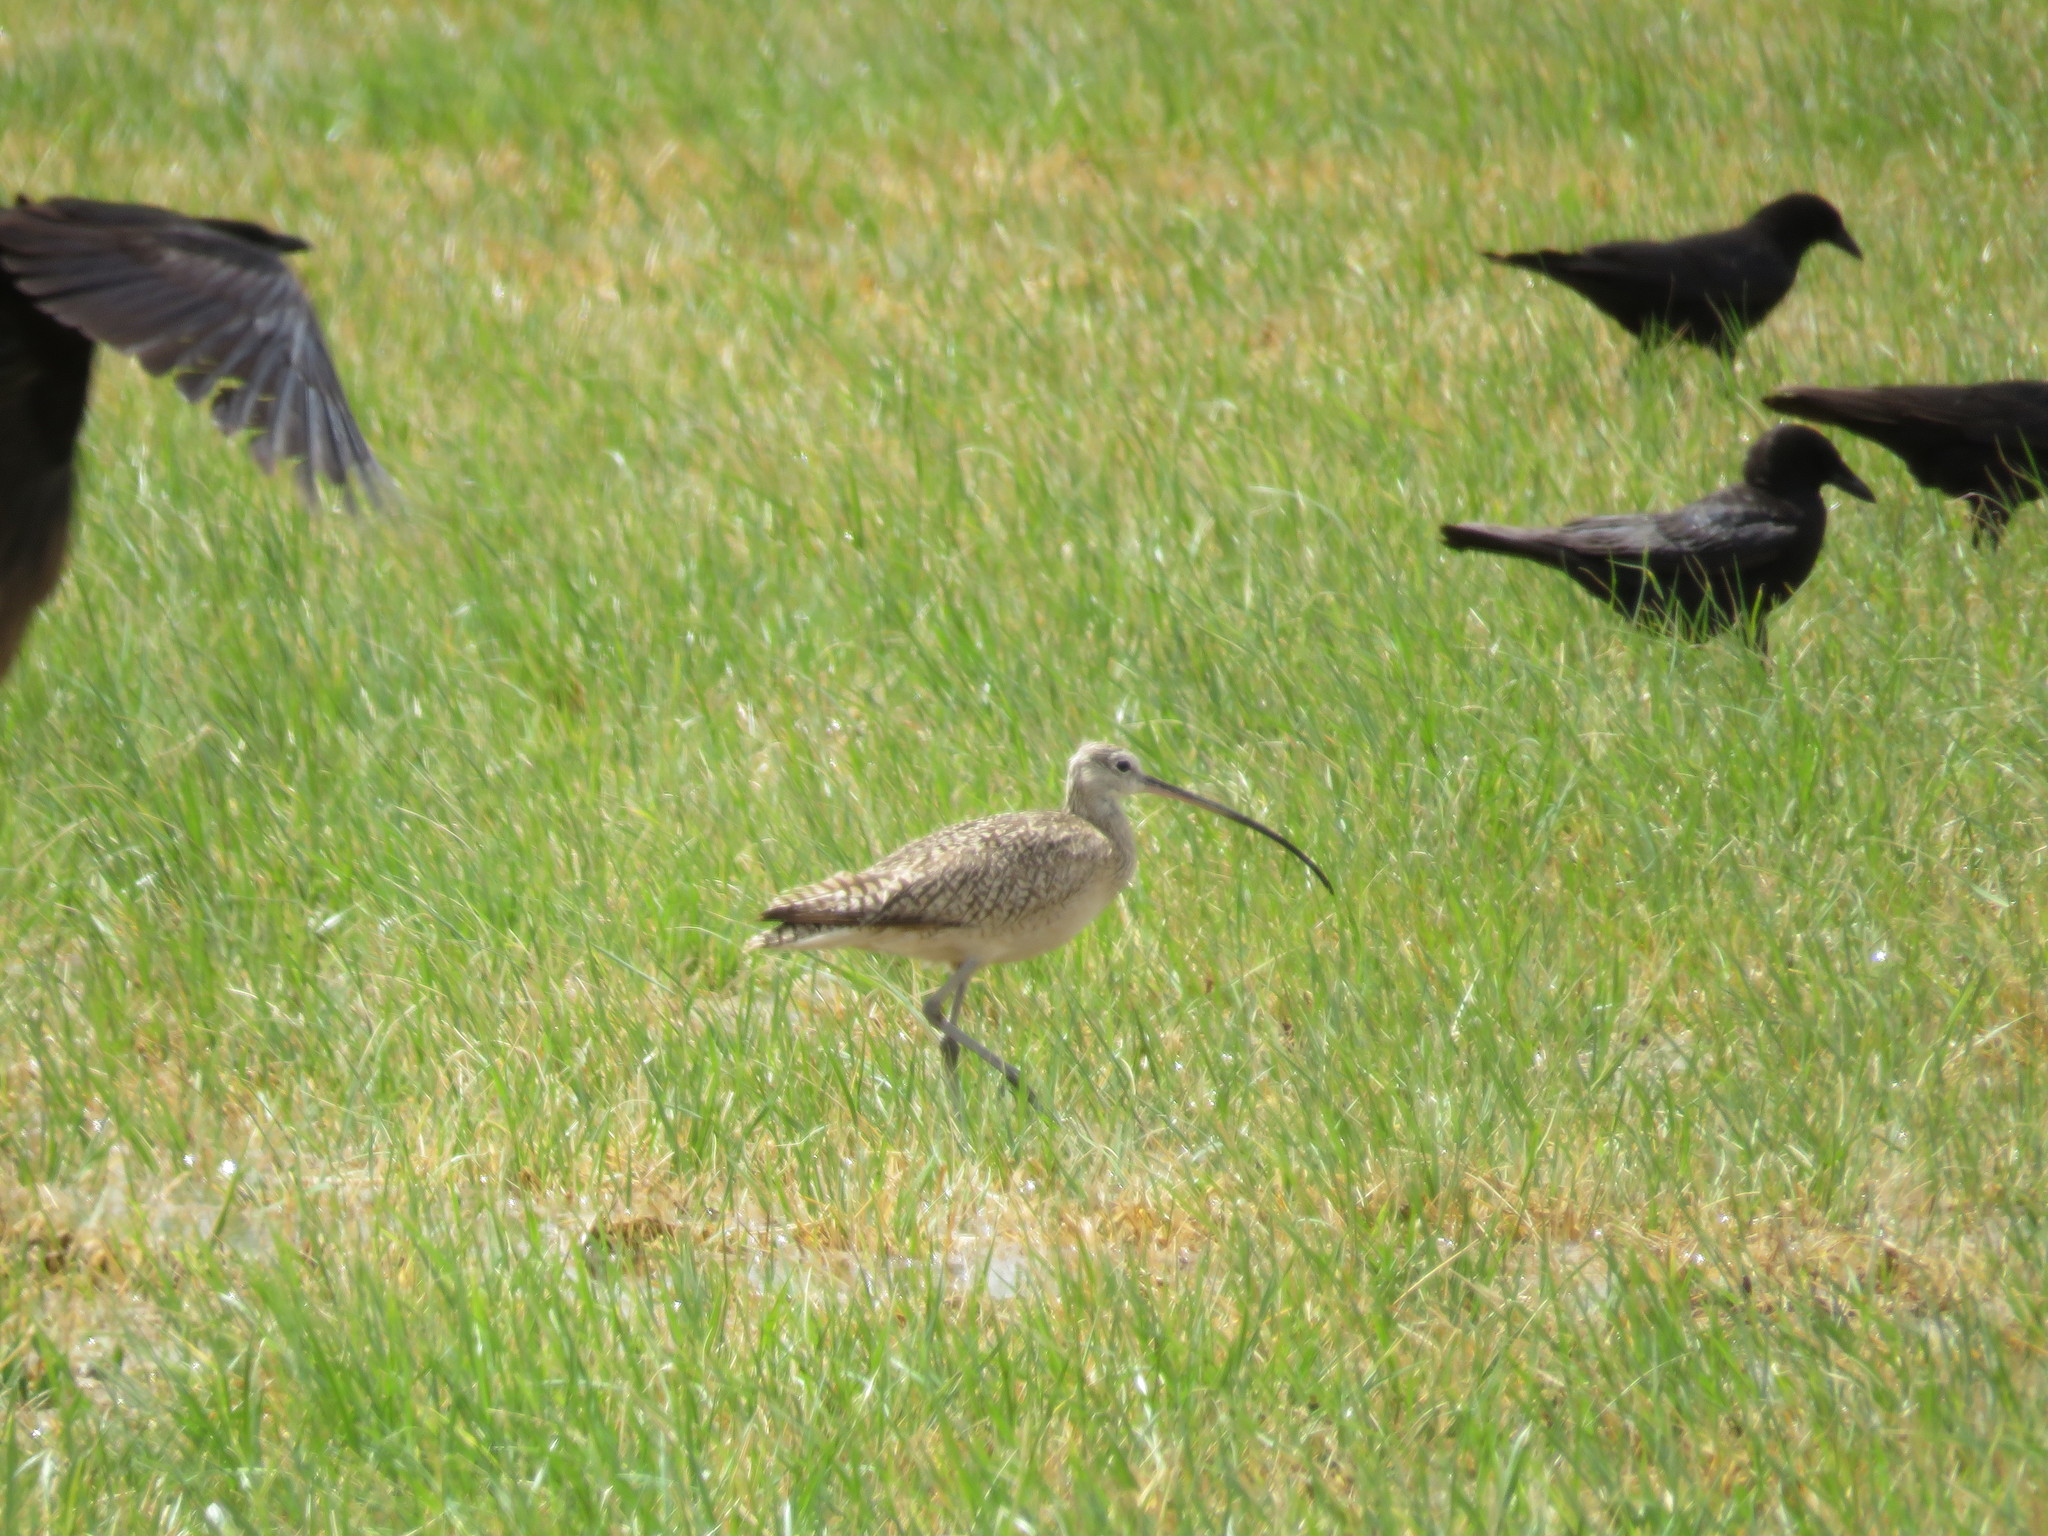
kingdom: Animalia
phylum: Chordata
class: Aves
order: Charadriiformes
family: Scolopacidae
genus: Numenius
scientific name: Numenius americanus
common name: Long-billed curlew
